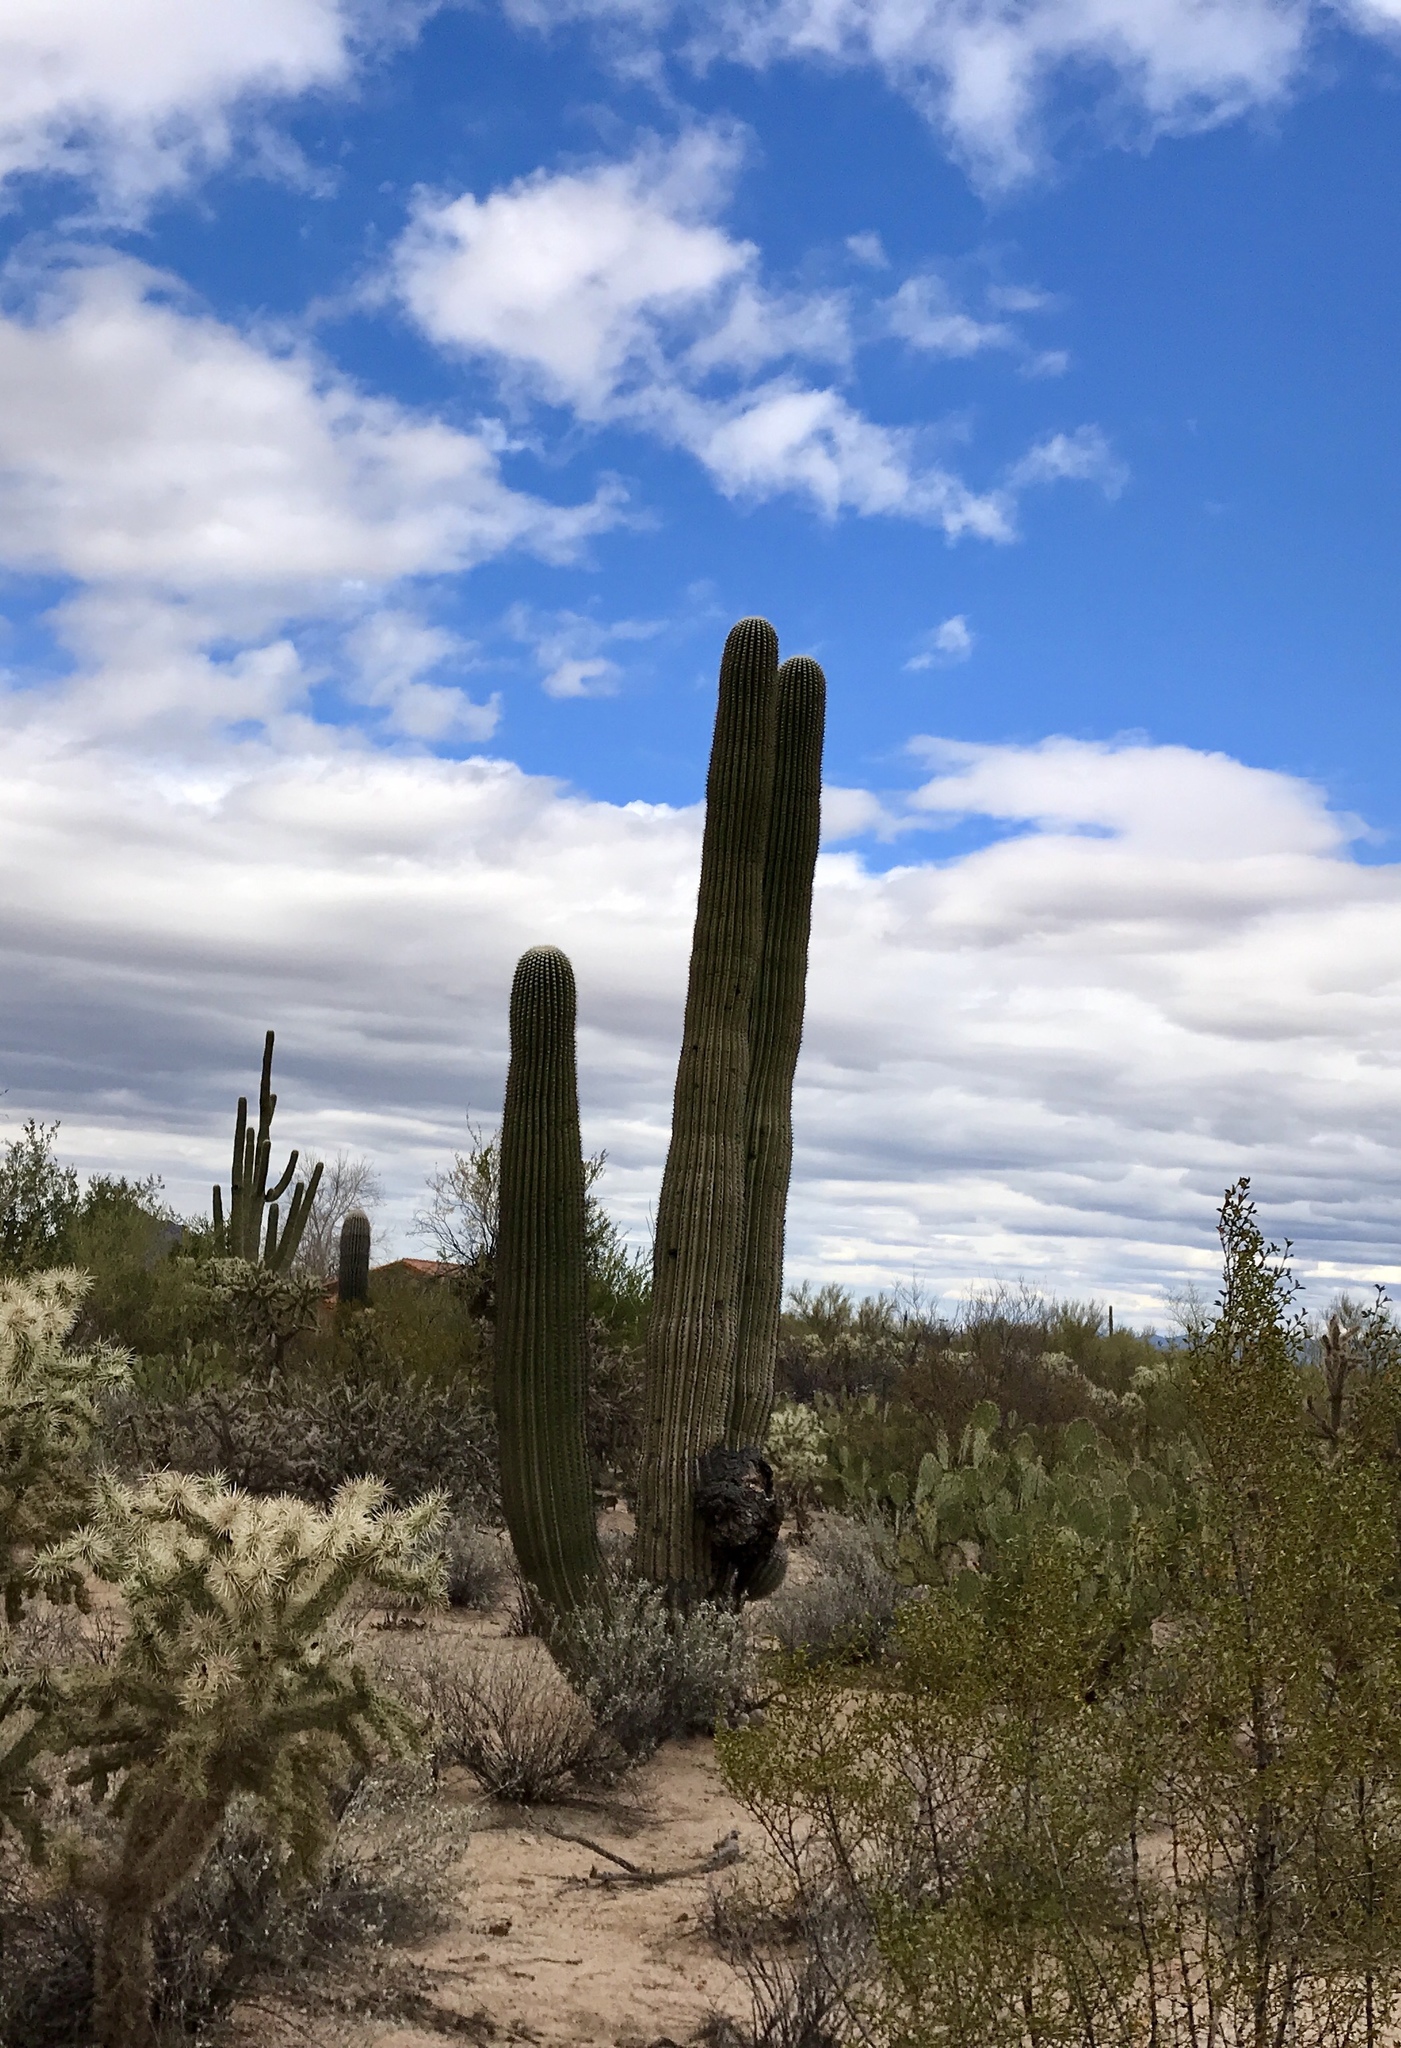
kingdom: Plantae
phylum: Tracheophyta
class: Magnoliopsida
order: Caryophyllales
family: Cactaceae
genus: Carnegiea
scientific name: Carnegiea gigantea
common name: Saguaro
